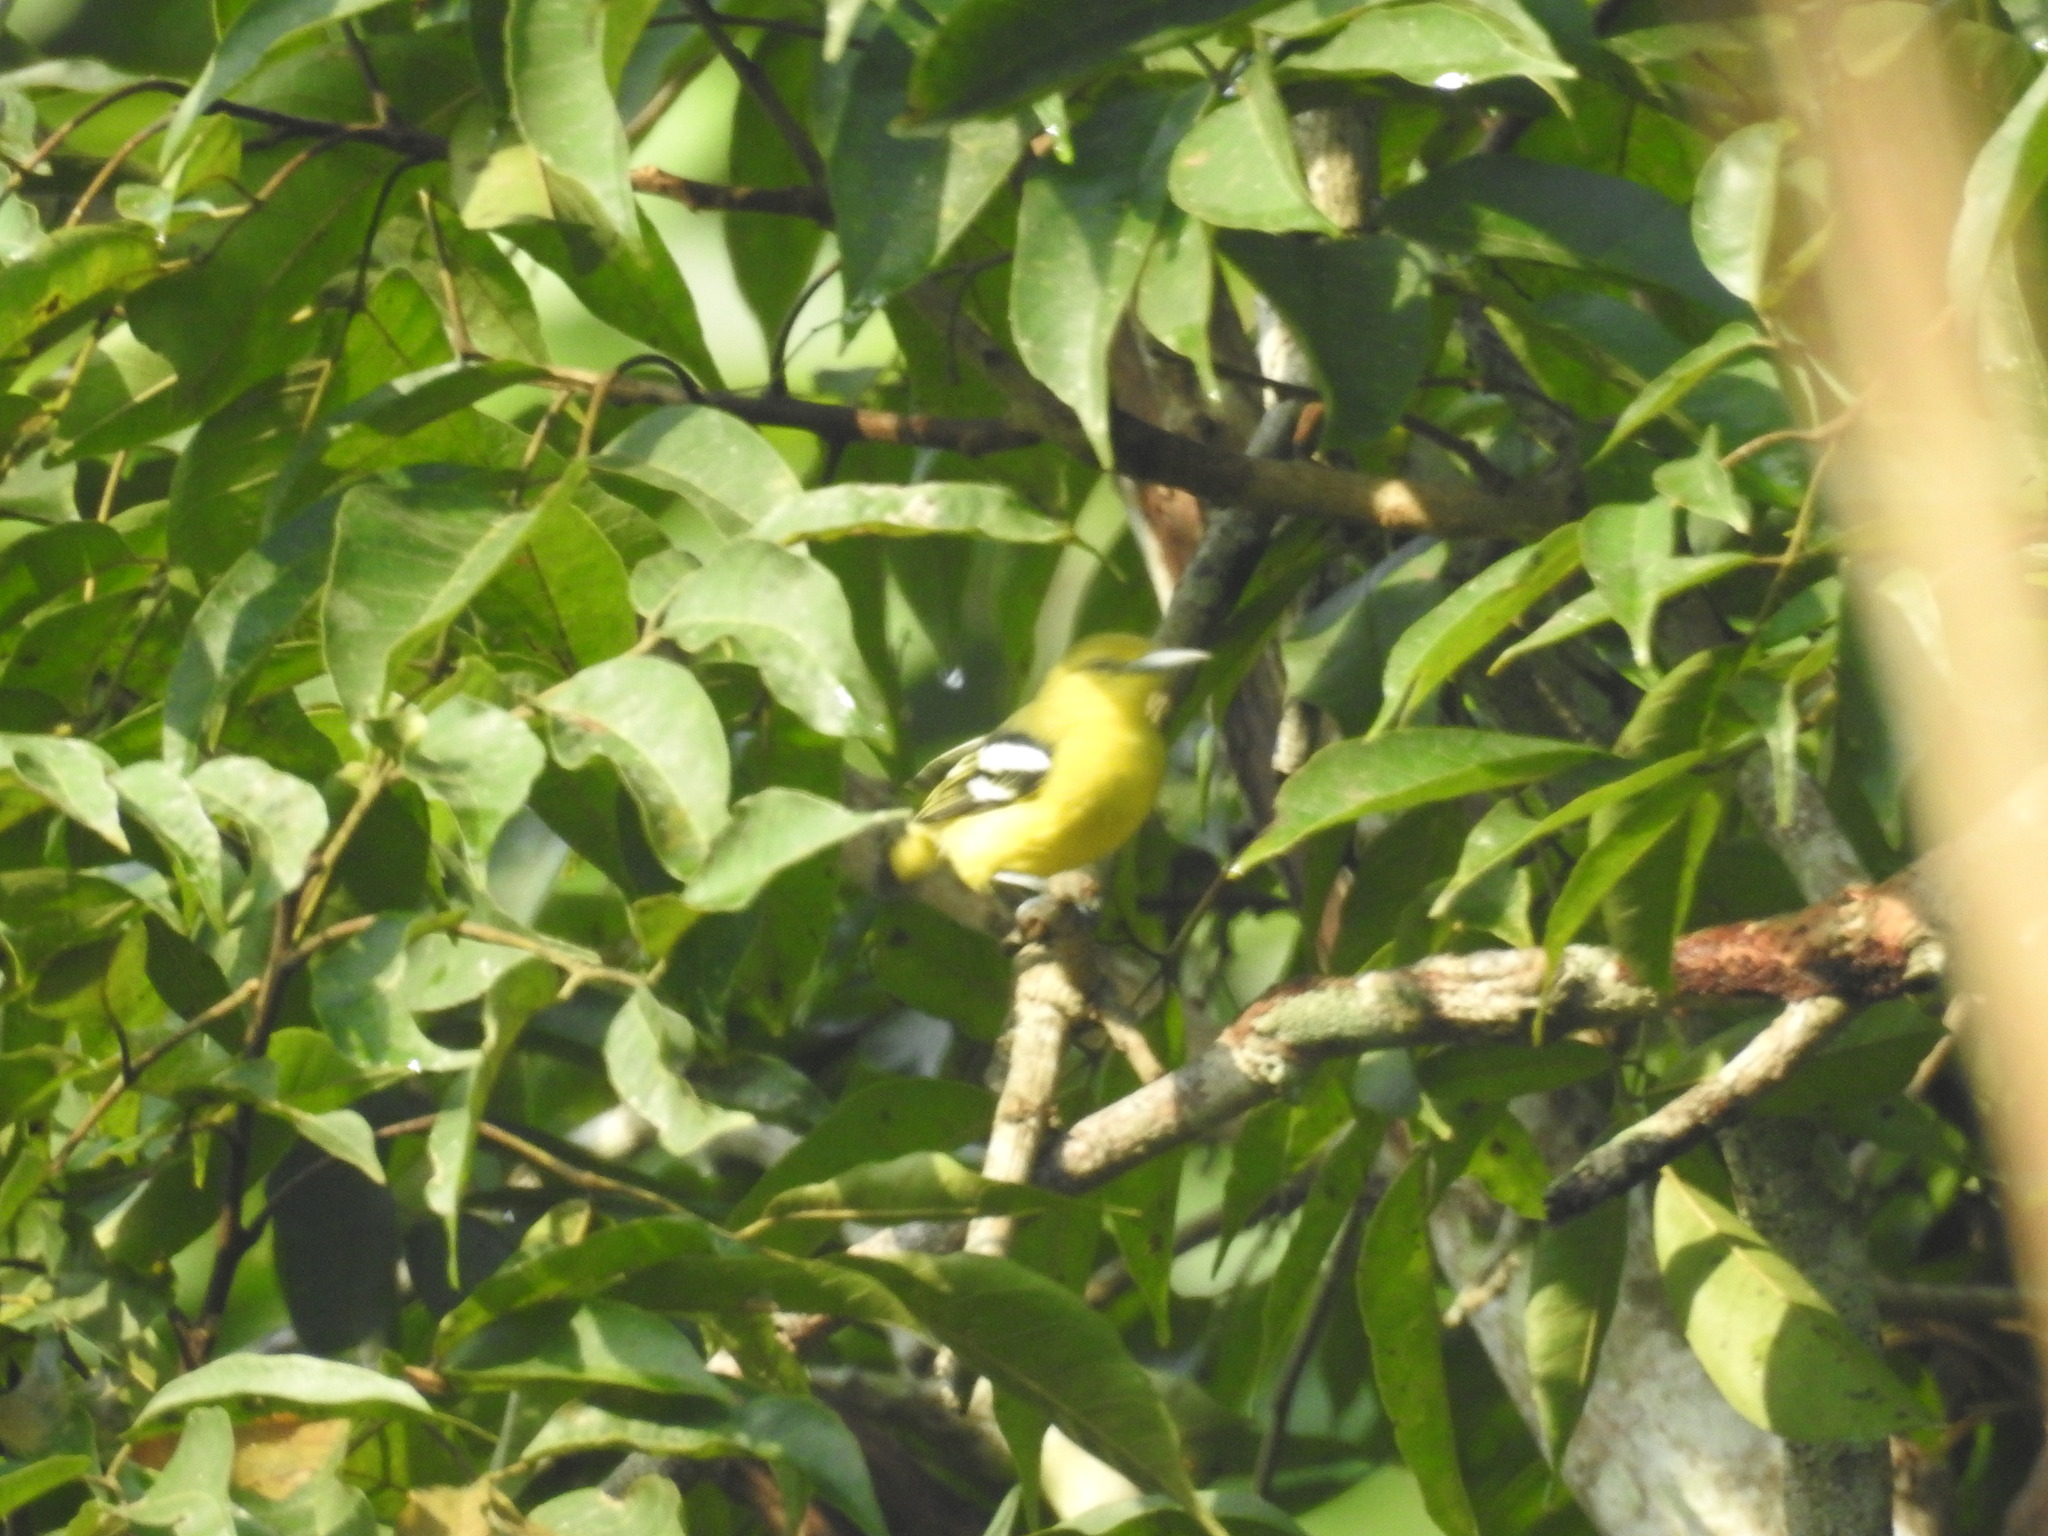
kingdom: Animalia
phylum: Chordata
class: Aves
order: Passeriformes
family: Aegithinidae
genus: Aegithina
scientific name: Aegithina tiphia
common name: Common iora
